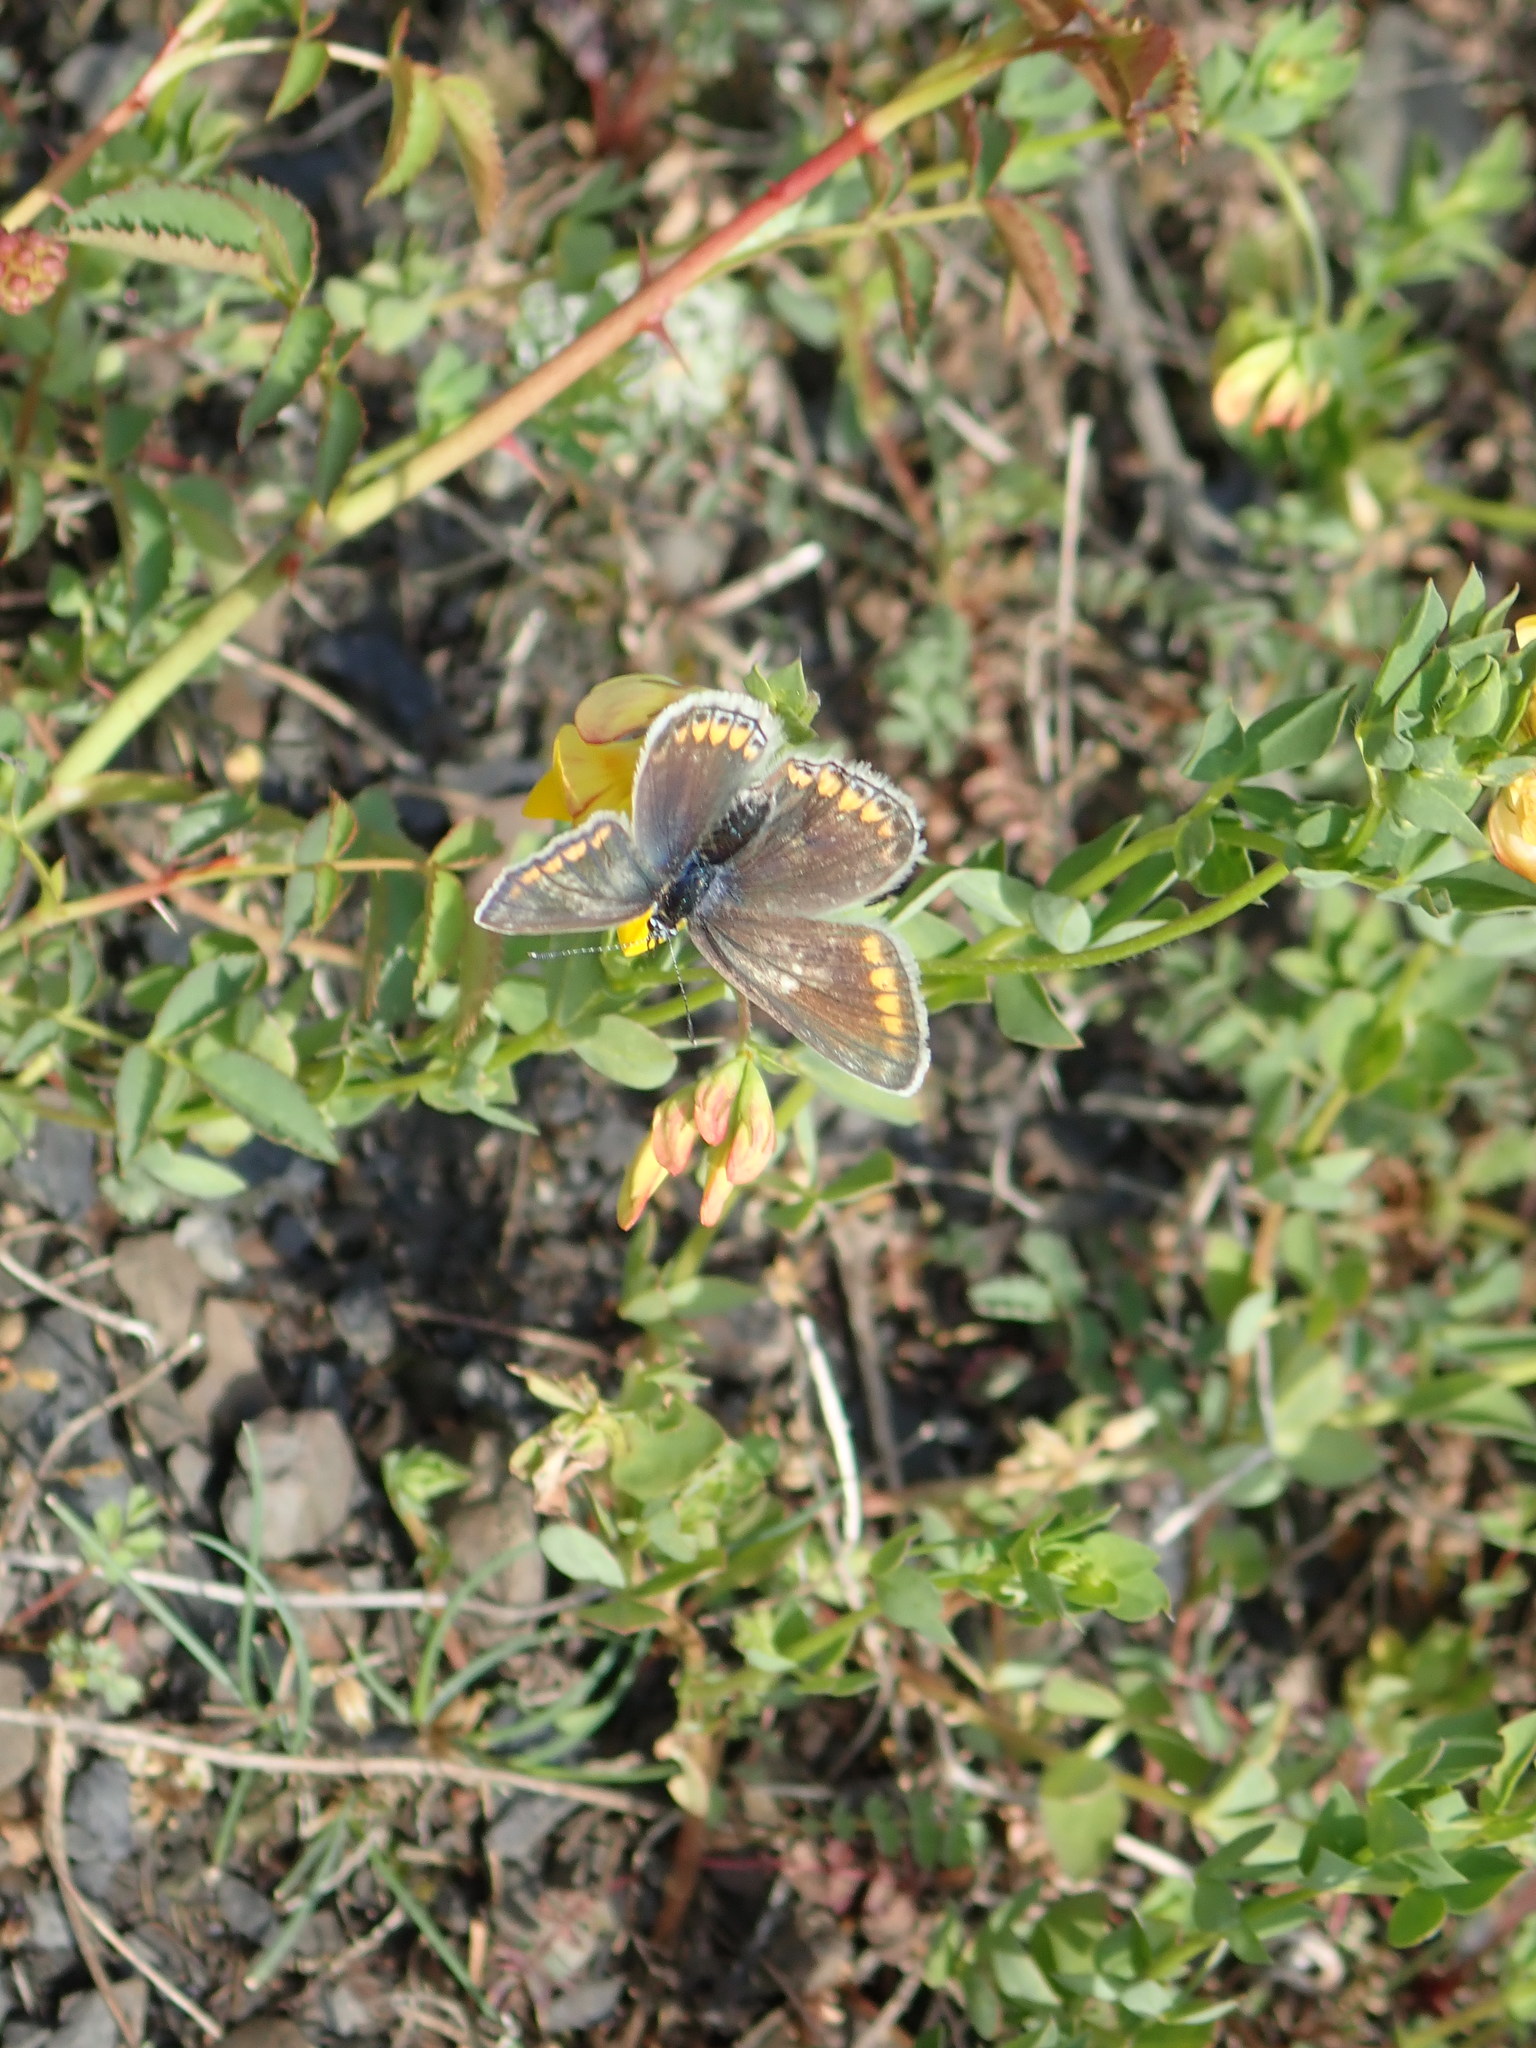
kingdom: Animalia
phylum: Arthropoda
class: Insecta
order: Lepidoptera
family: Lycaenidae
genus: Polyommatus
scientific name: Polyommatus icarus
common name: Common blue
